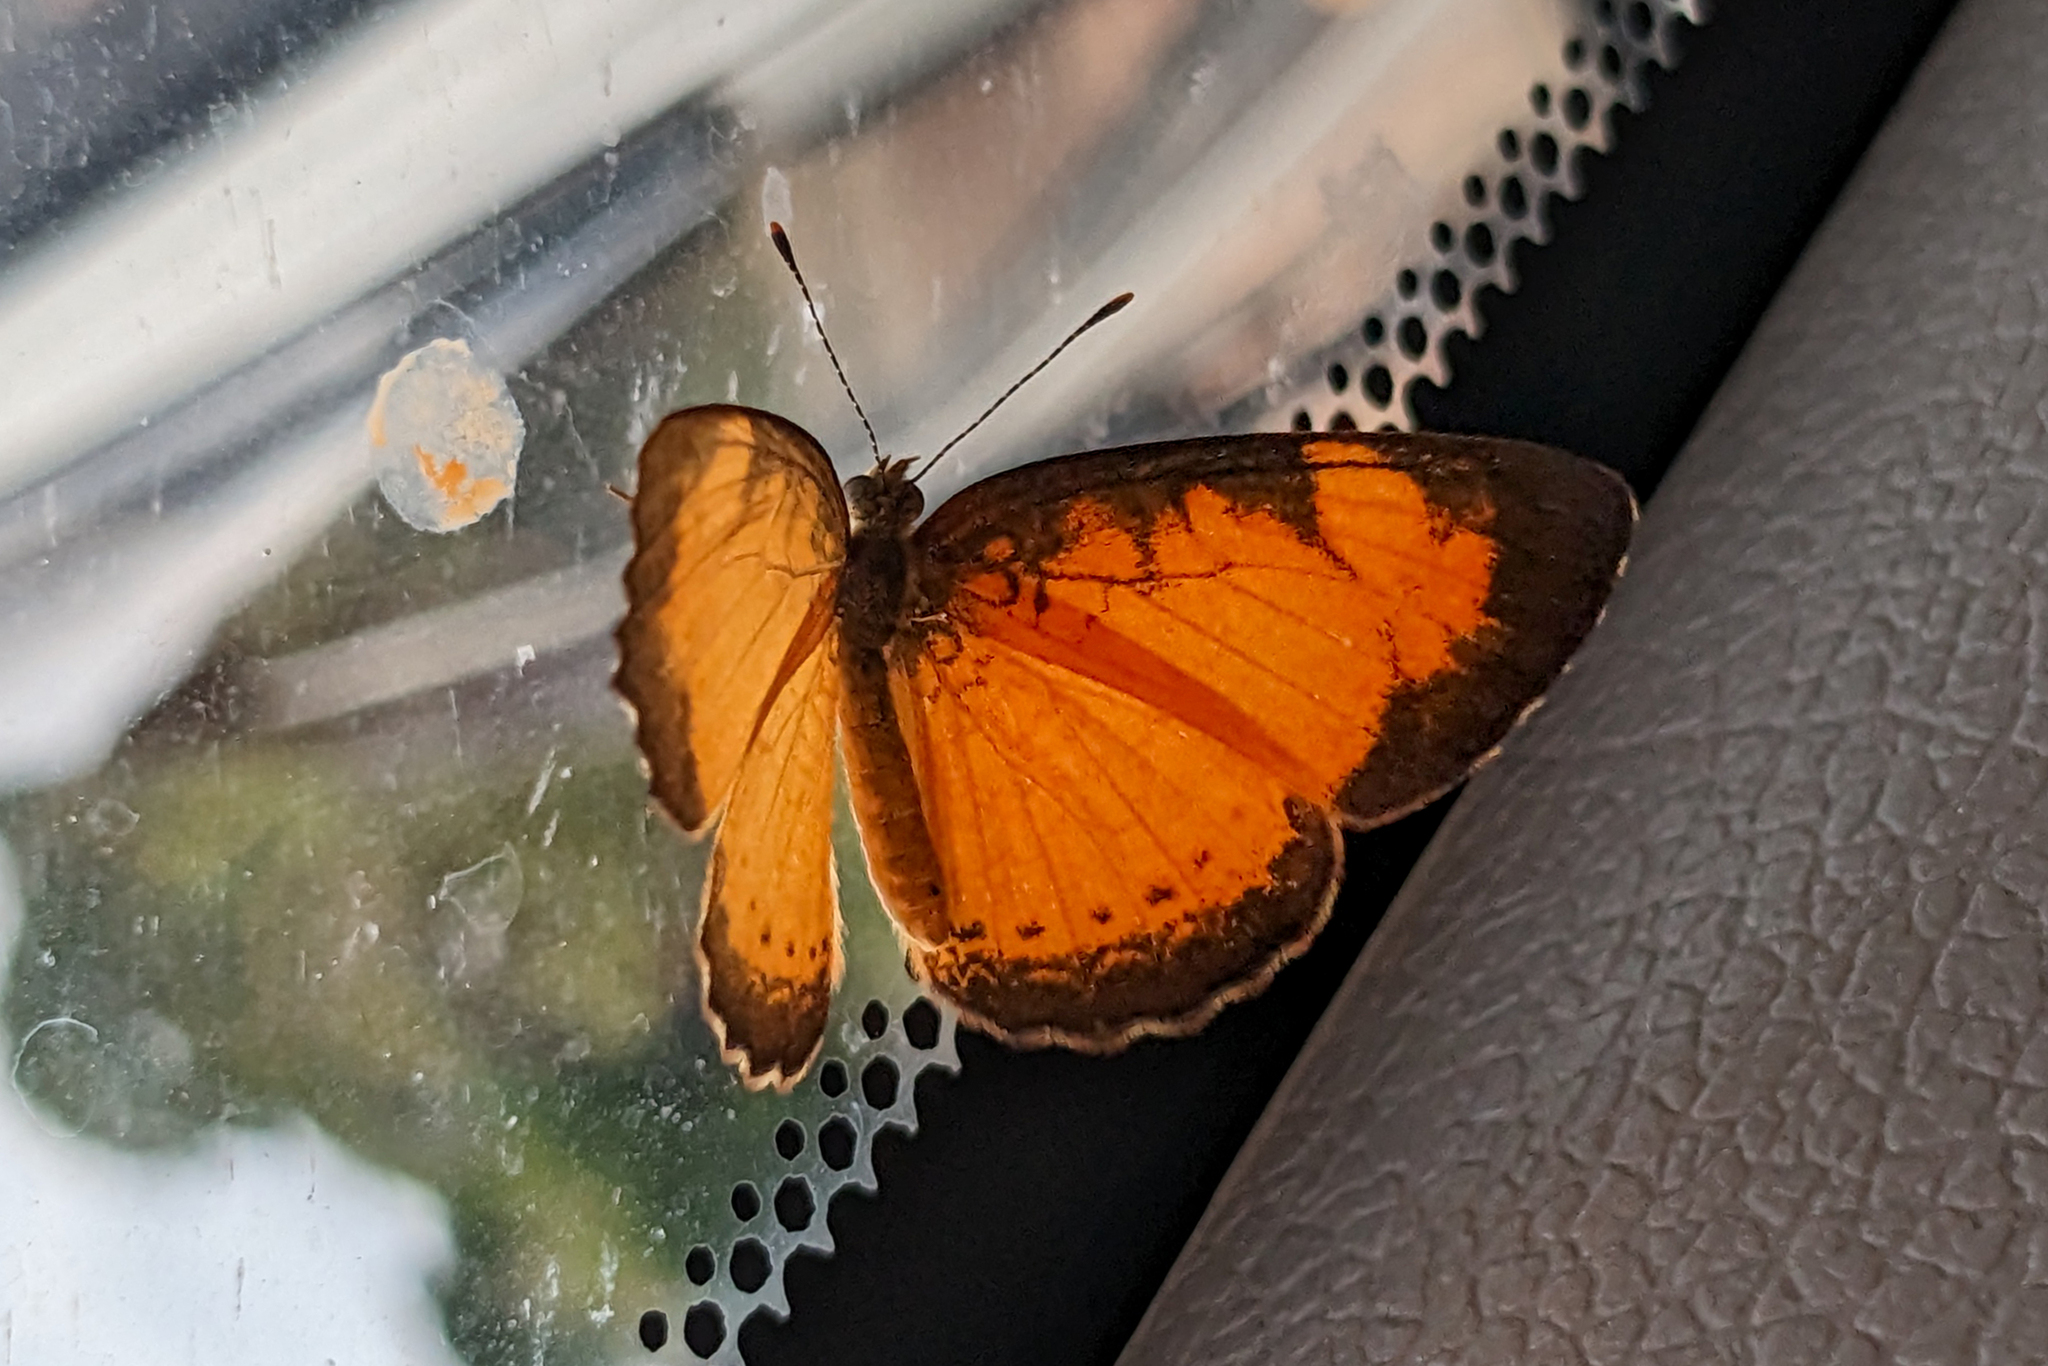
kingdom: Animalia
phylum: Arthropoda
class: Insecta
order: Lepidoptera
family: Nymphalidae
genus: Tegosa
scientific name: Tegosa claudina
